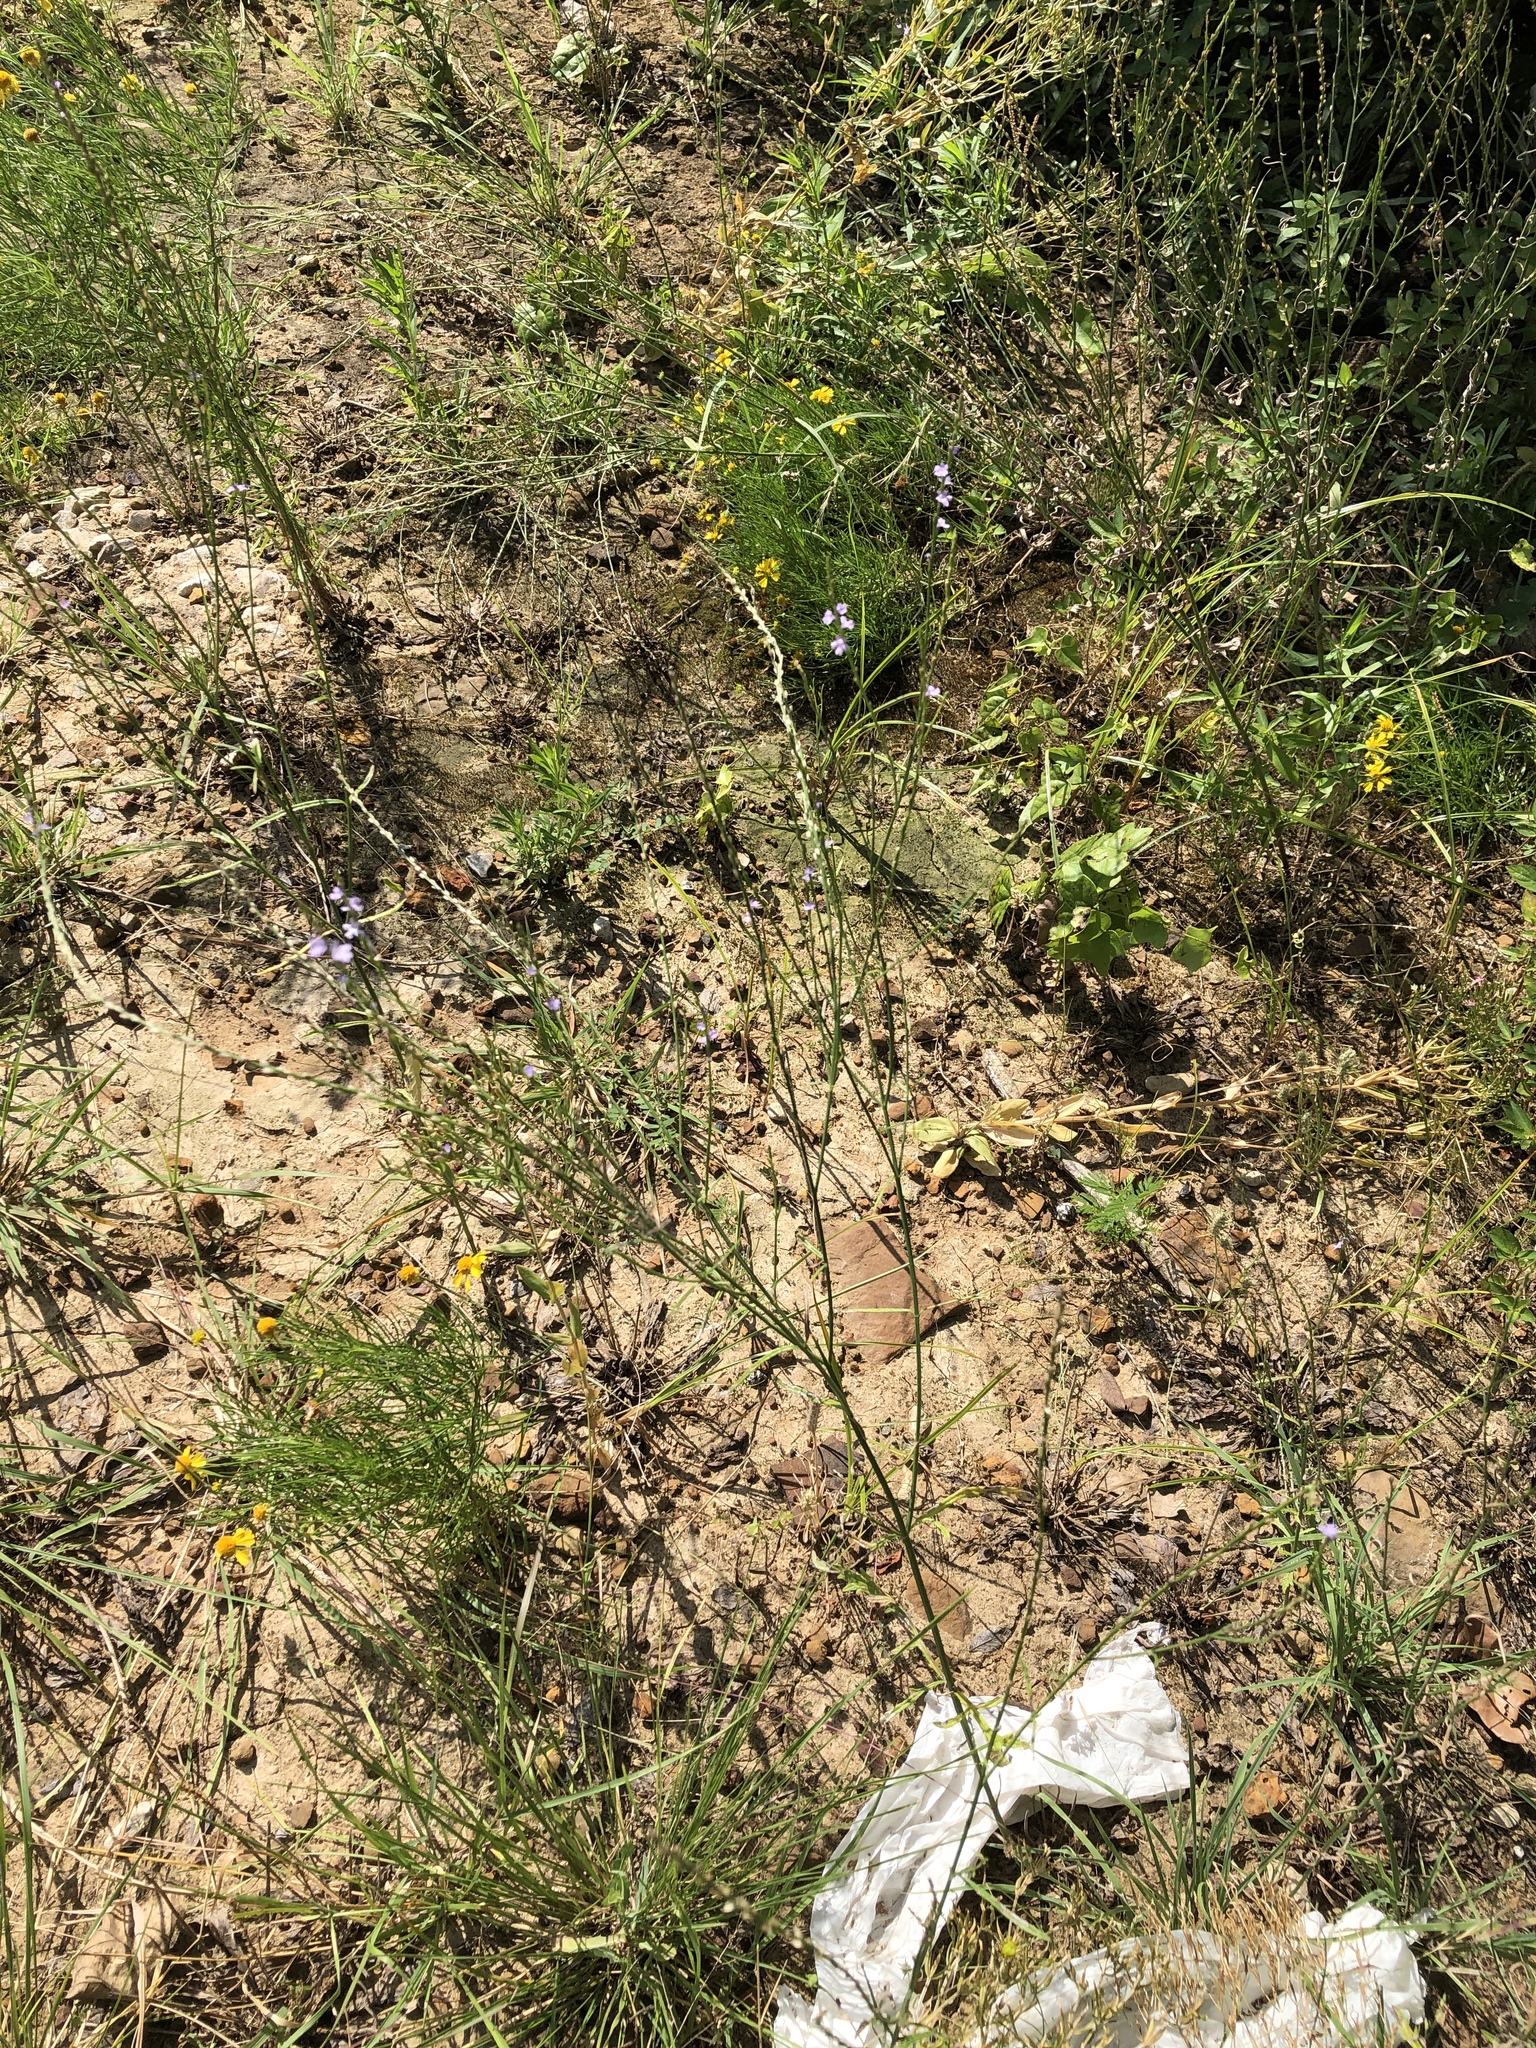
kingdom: Plantae
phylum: Tracheophyta
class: Magnoliopsida
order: Lamiales
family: Verbenaceae
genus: Verbena
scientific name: Verbena halei
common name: Texas vervain
